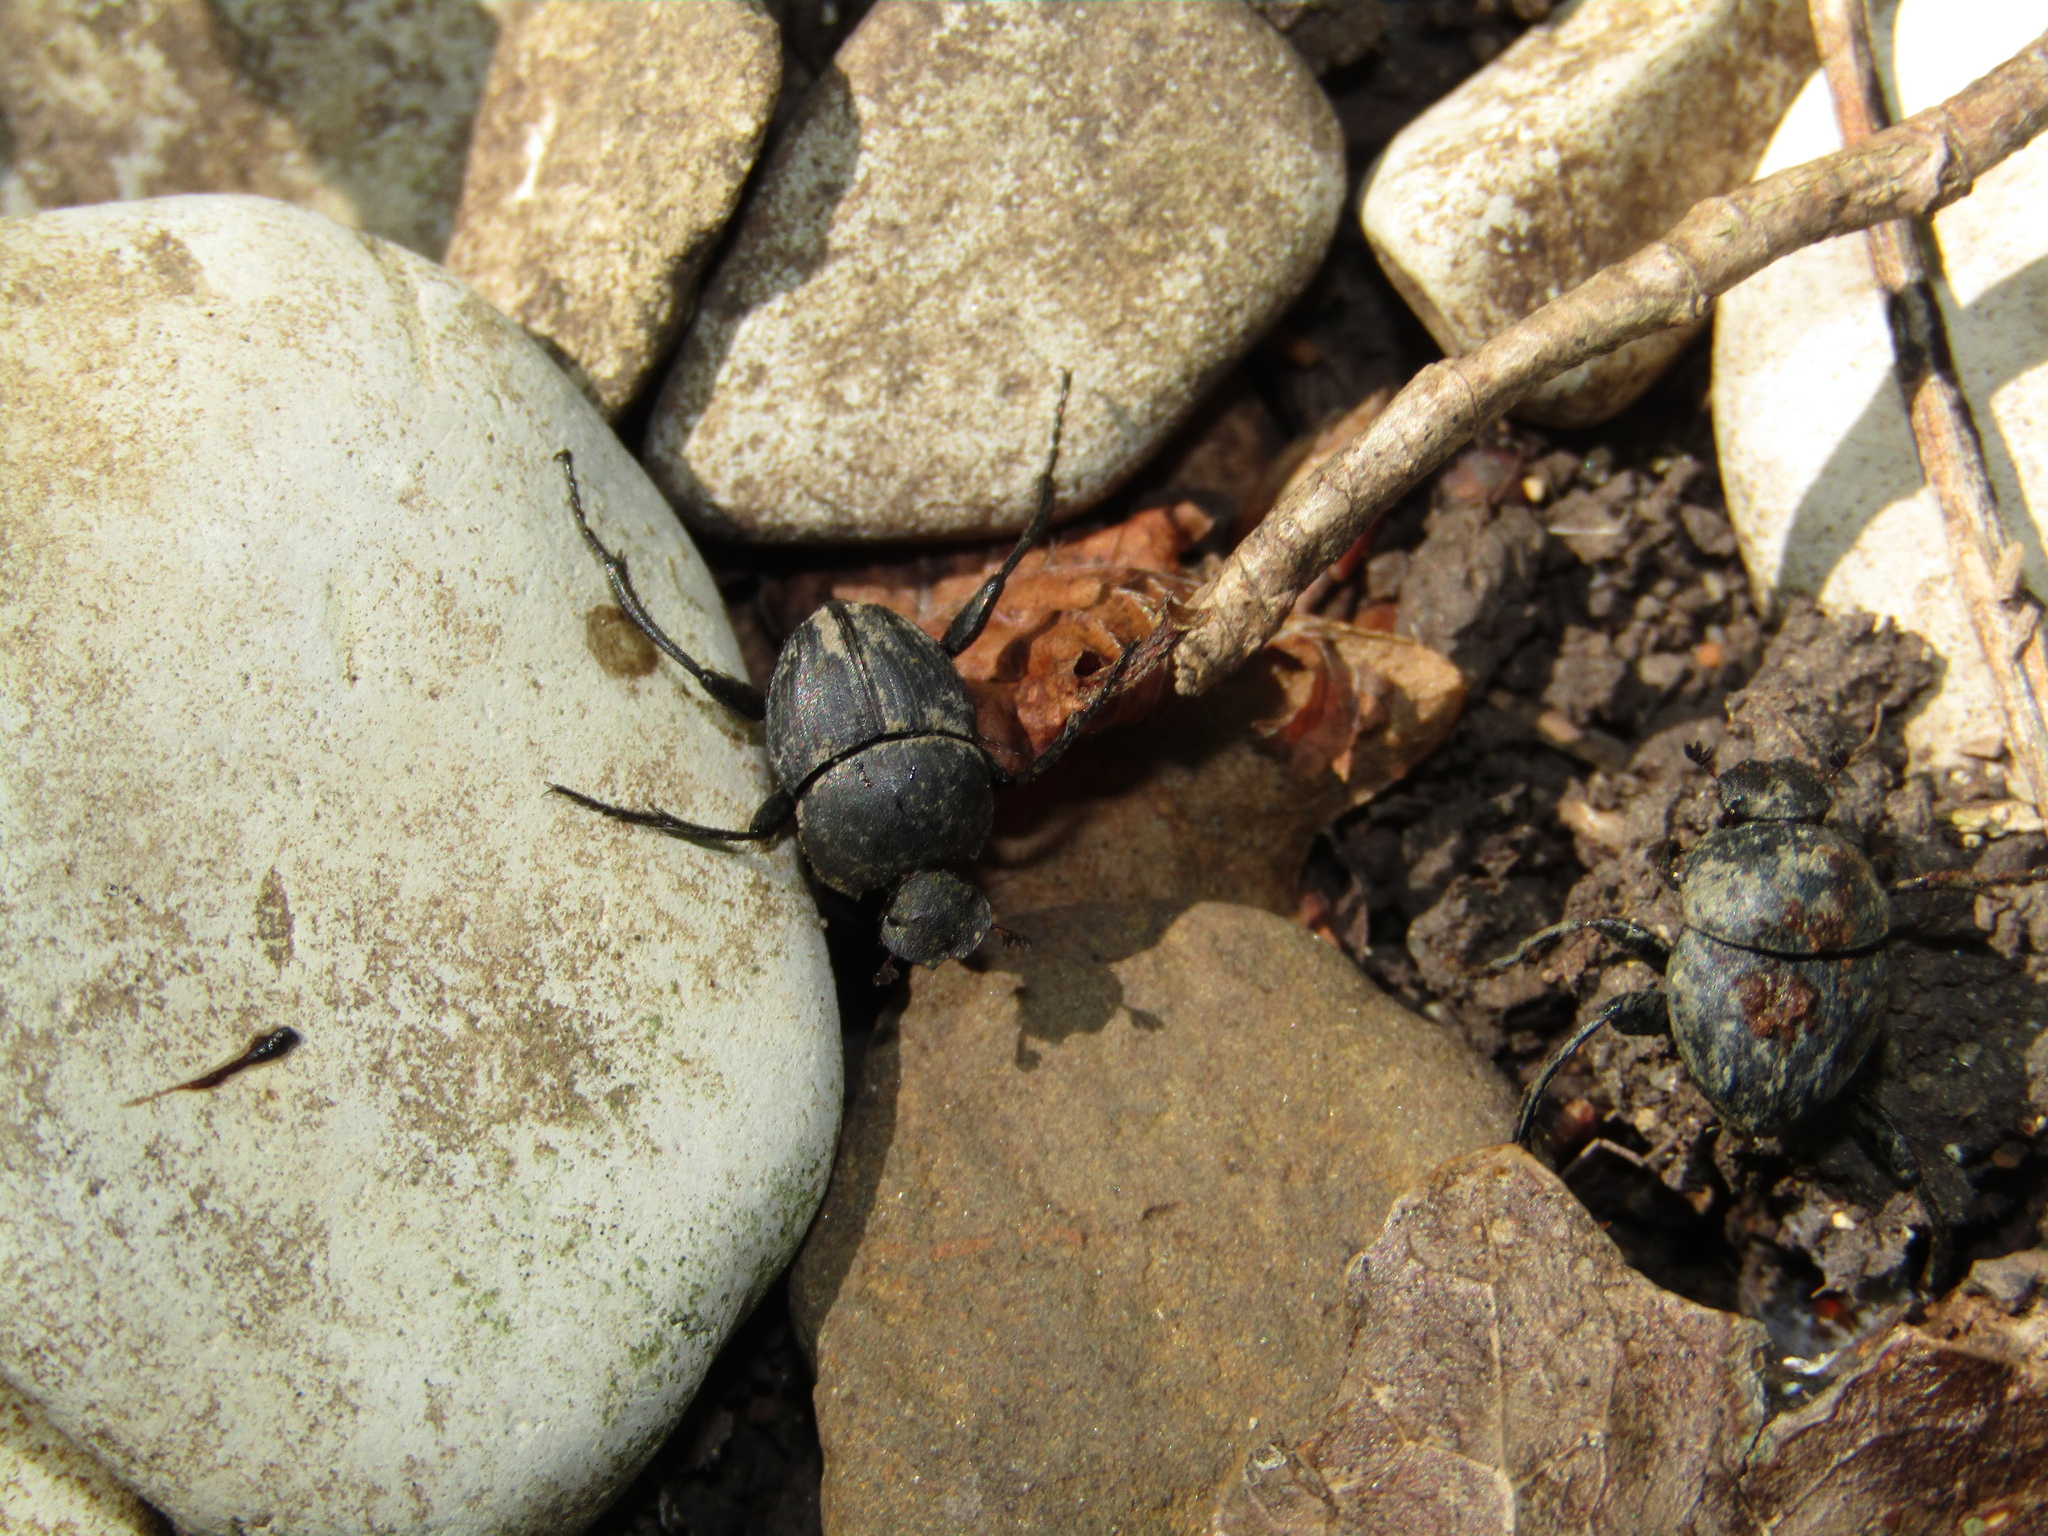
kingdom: Animalia
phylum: Arthropoda
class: Insecta
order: Coleoptera
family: Scarabaeidae
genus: Sisyphus
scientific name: Sisyphus schaefferi
